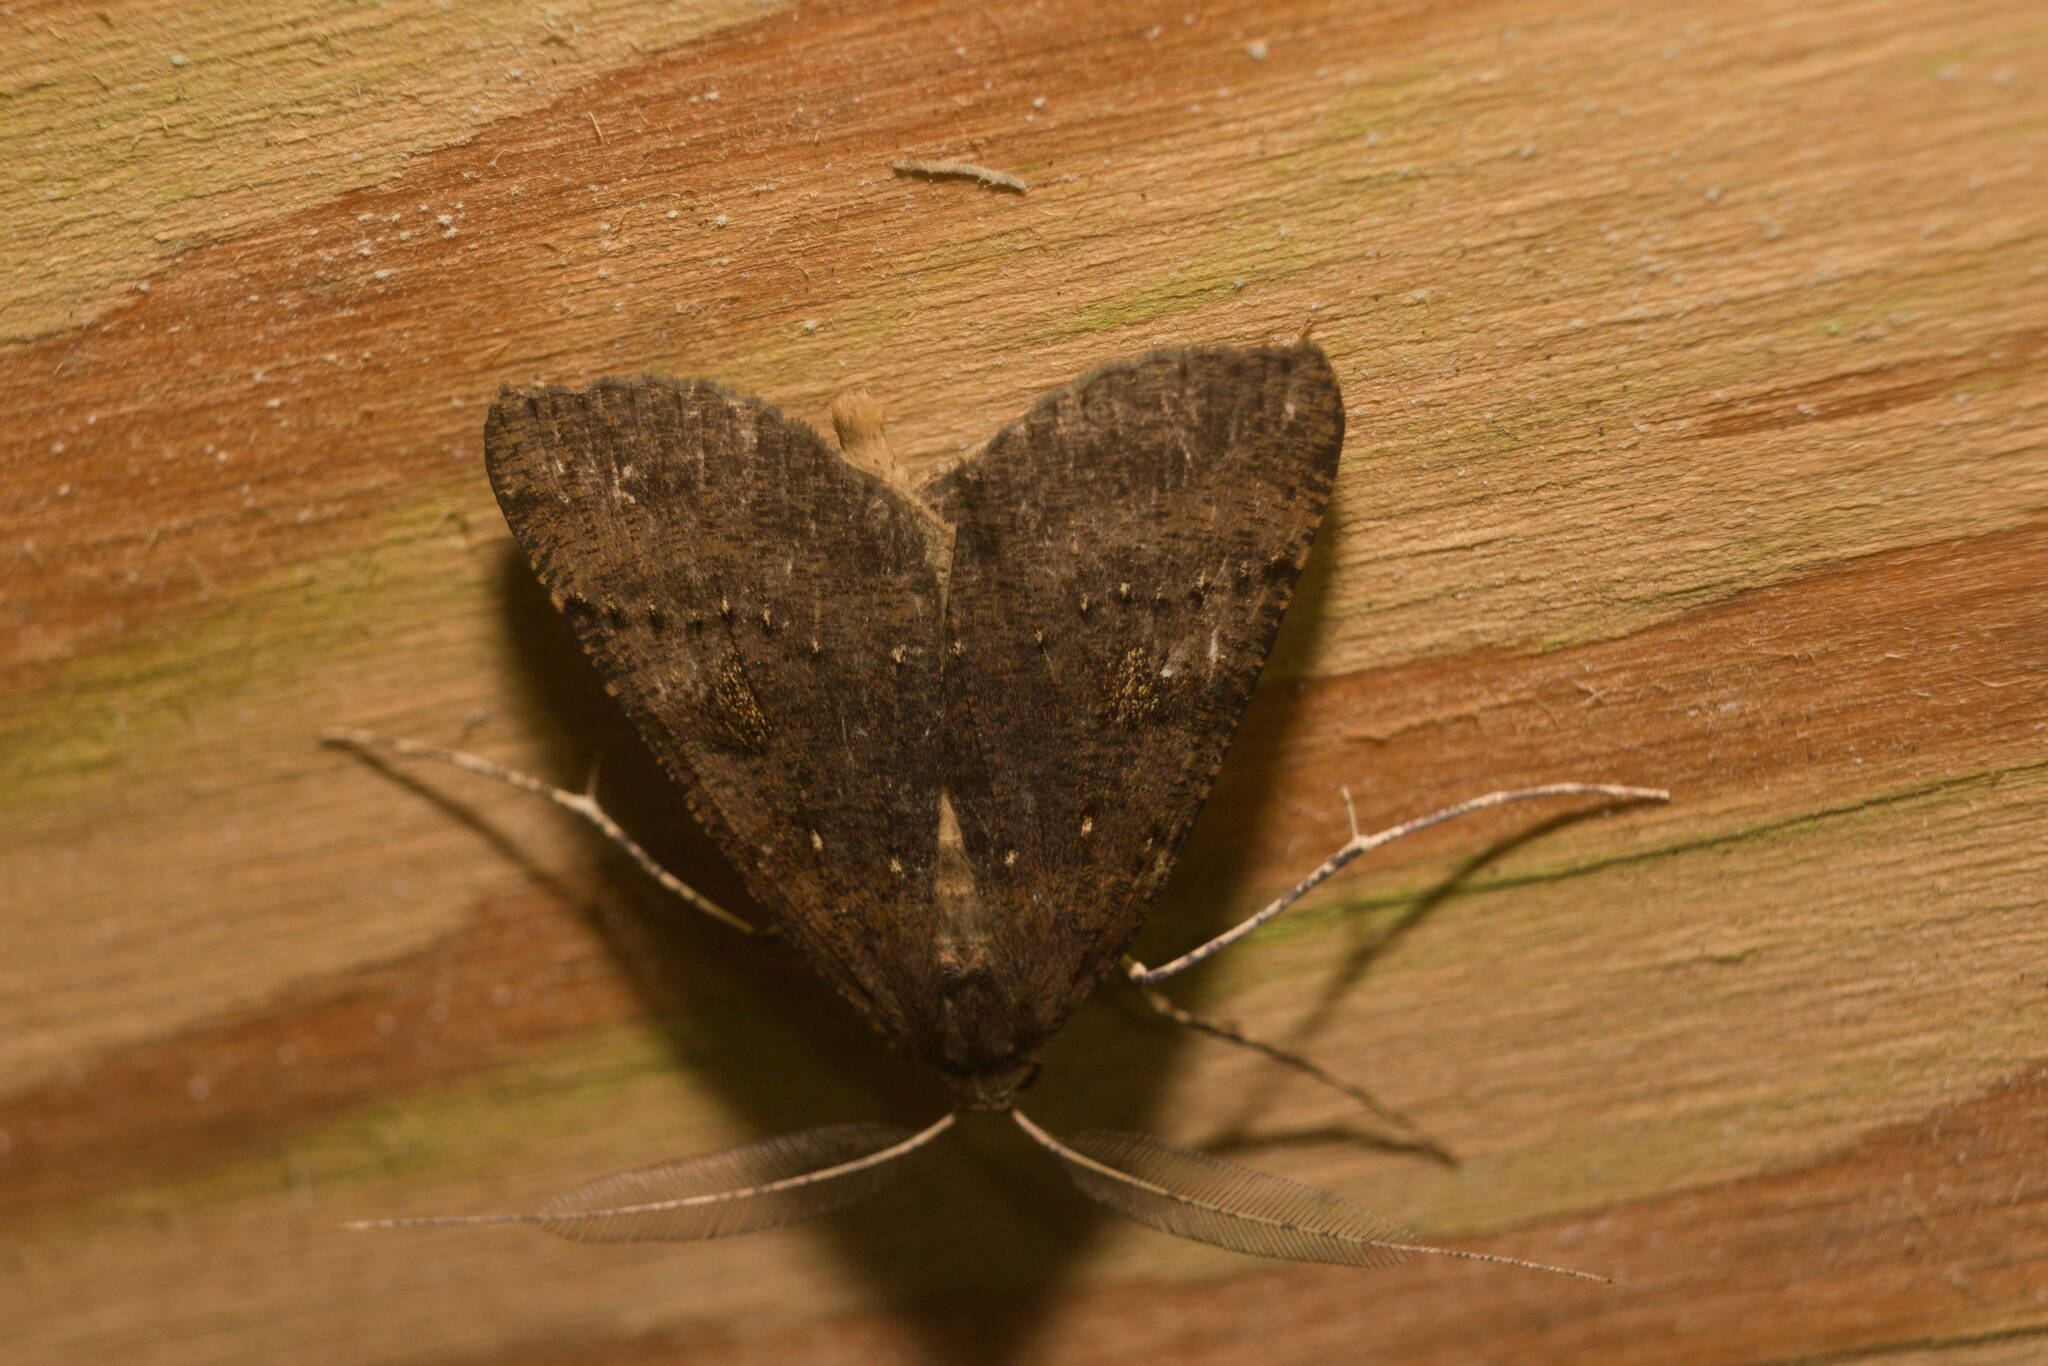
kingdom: Animalia
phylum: Arthropoda
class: Insecta
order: Lepidoptera
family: Geometridae
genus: Scotorythra
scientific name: Scotorythra rara
